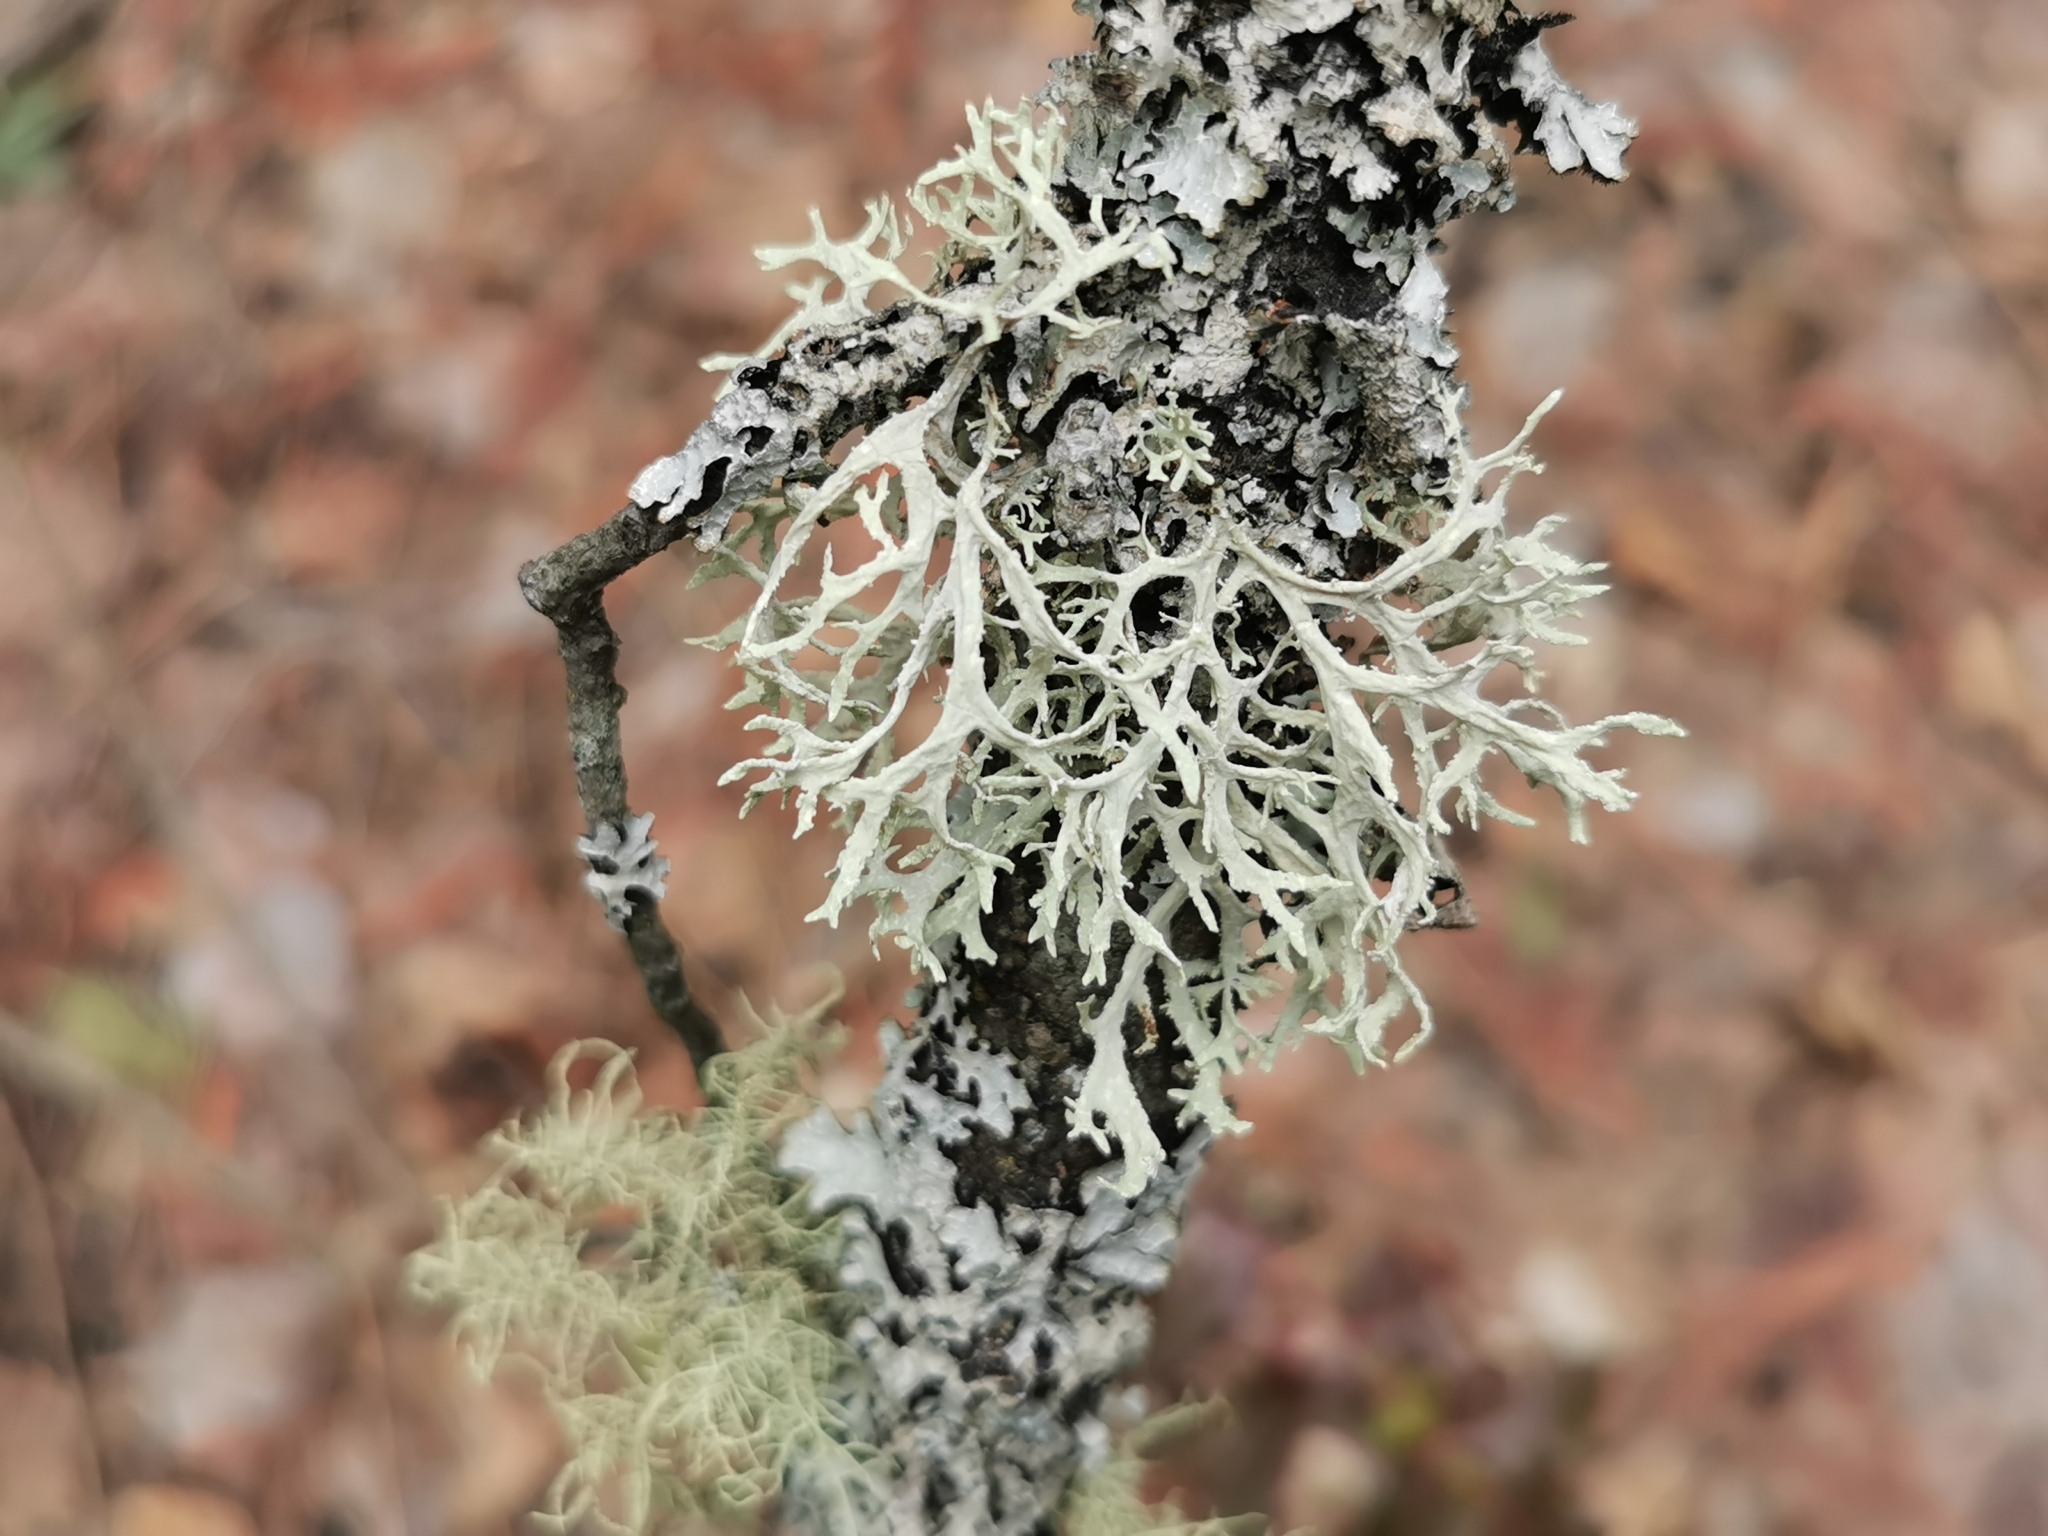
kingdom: Fungi
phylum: Ascomycota
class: Lecanoromycetes
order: Lecanorales
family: Parmeliaceae
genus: Evernia
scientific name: Evernia prunastri
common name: Oak moss
